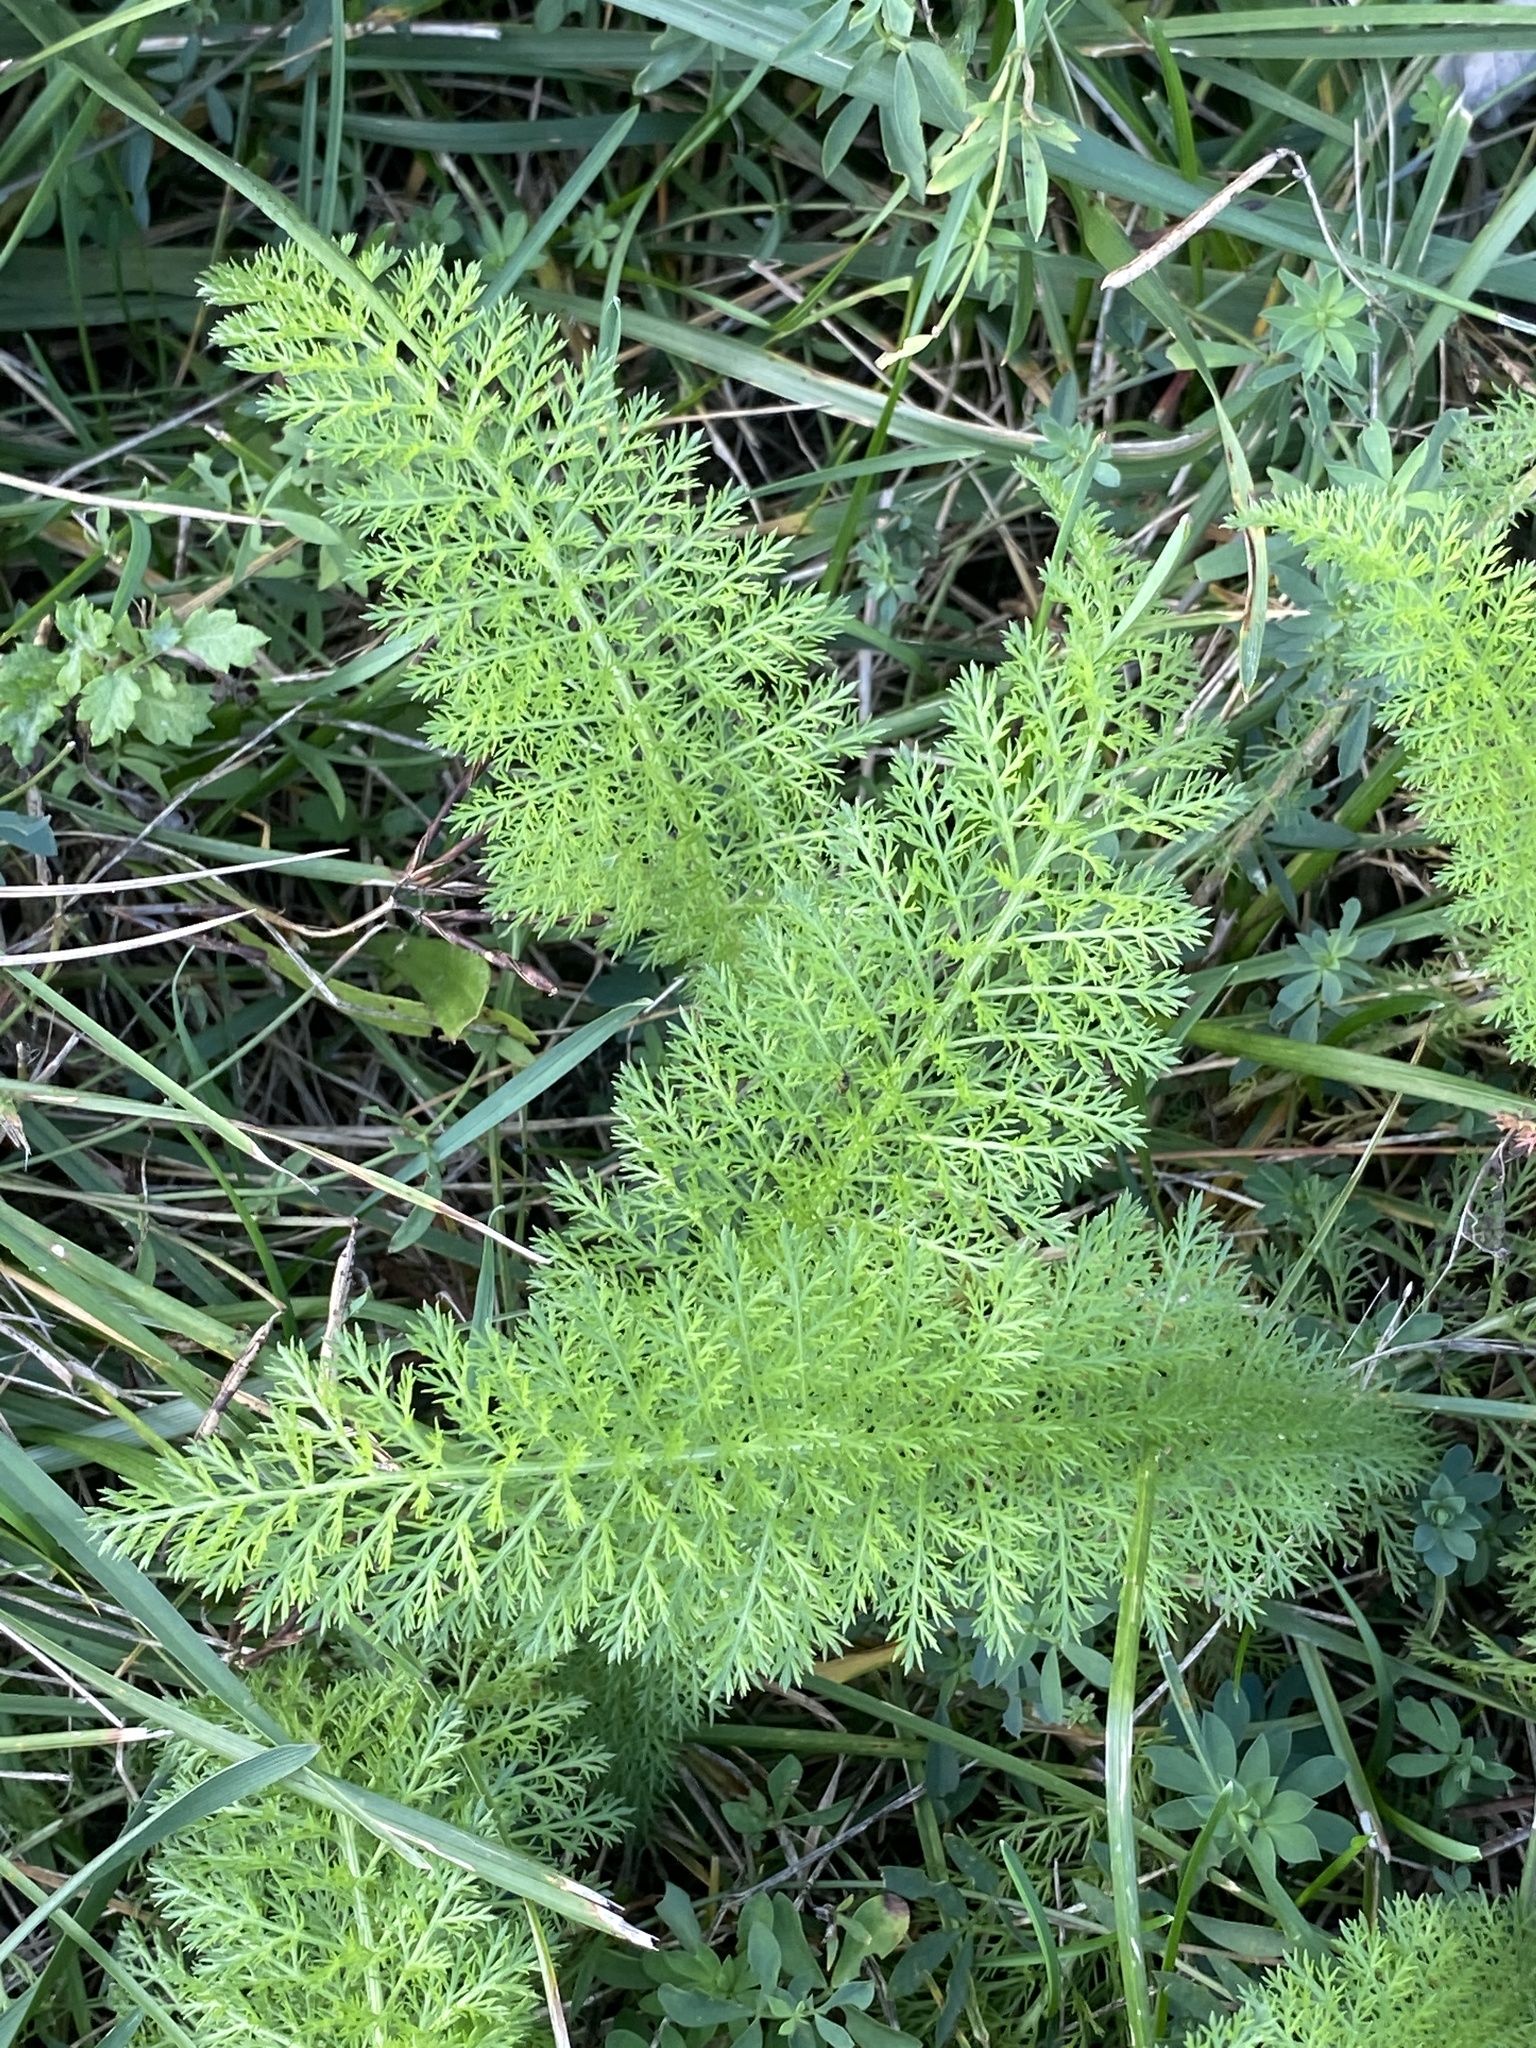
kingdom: Plantae
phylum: Tracheophyta
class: Magnoliopsida
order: Asterales
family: Asteraceae
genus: Achillea
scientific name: Achillea millefolium
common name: Yarrow
